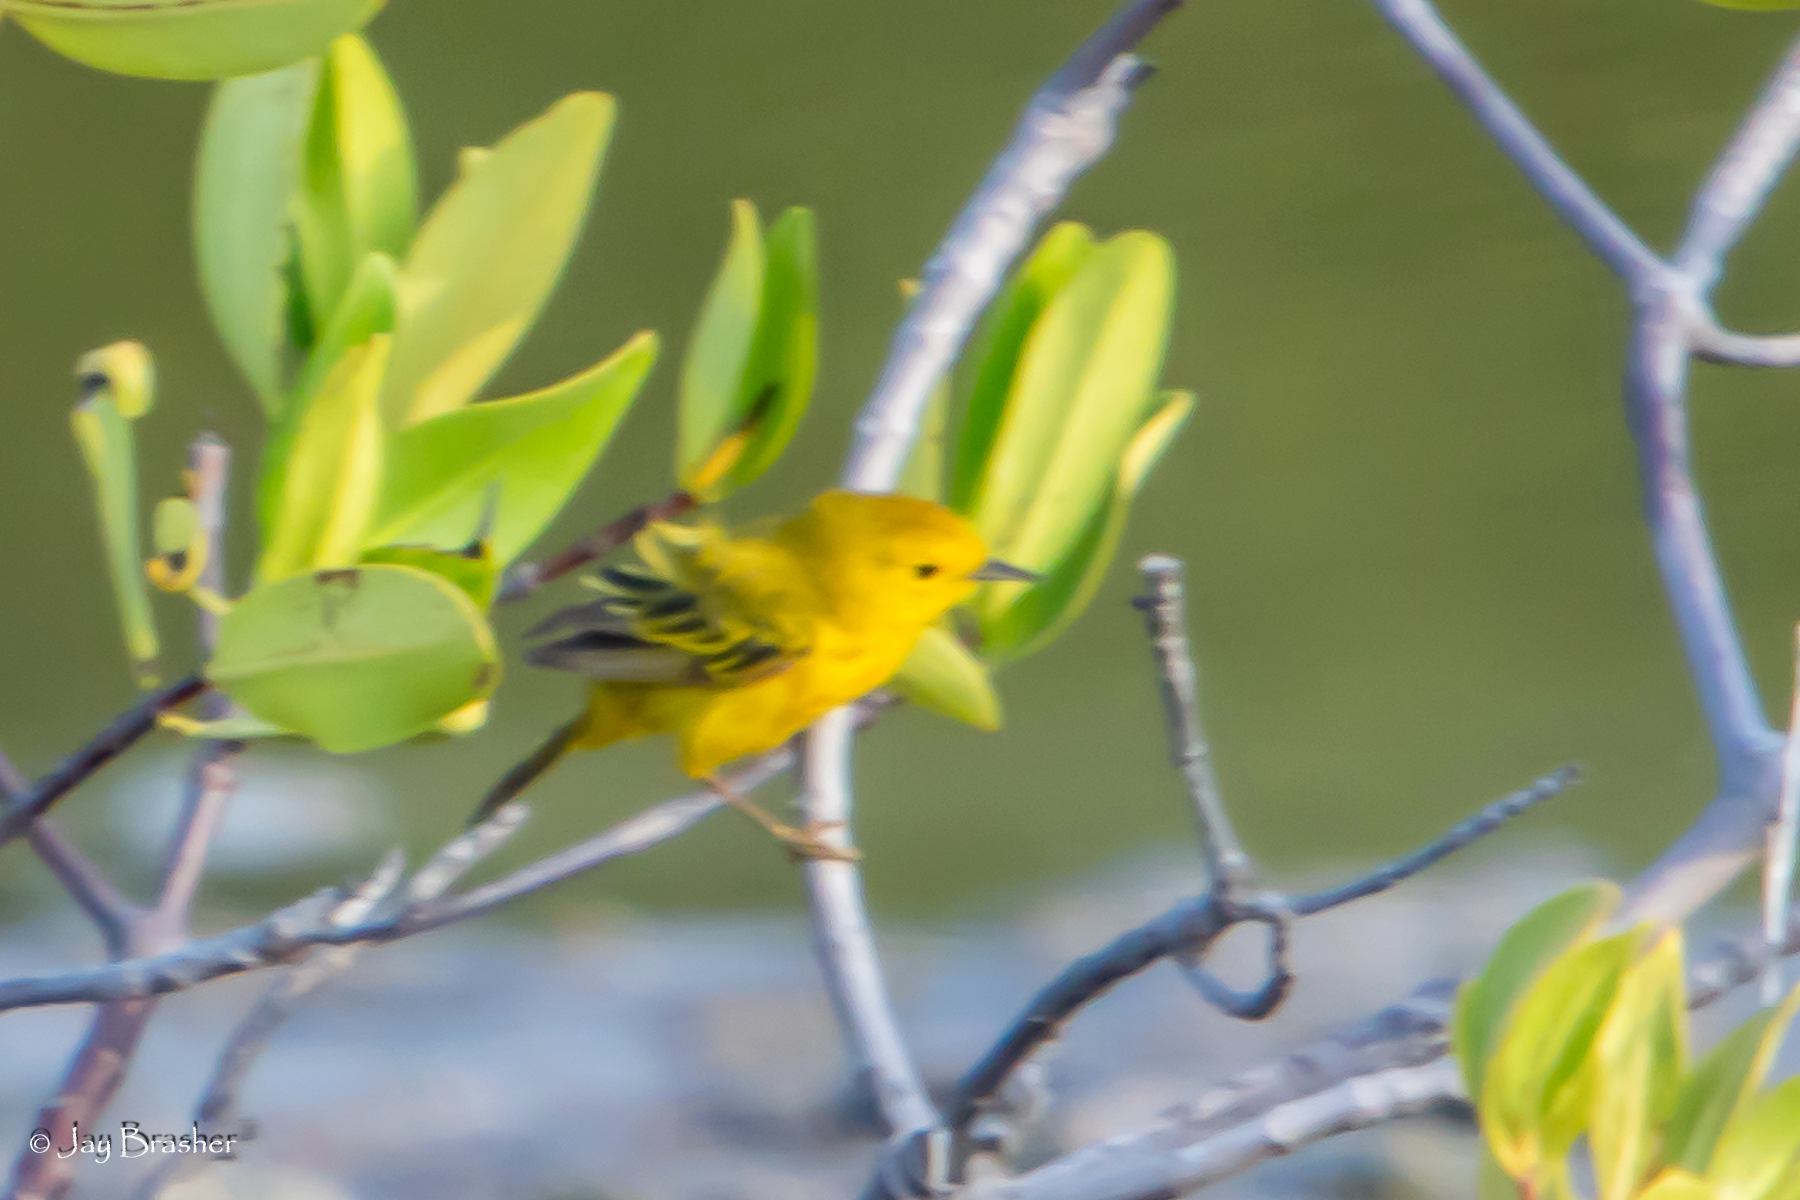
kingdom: Animalia
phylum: Chordata
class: Aves
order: Passeriformes
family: Parulidae
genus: Setophaga
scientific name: Setophaga petechia
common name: Yellow warbler
